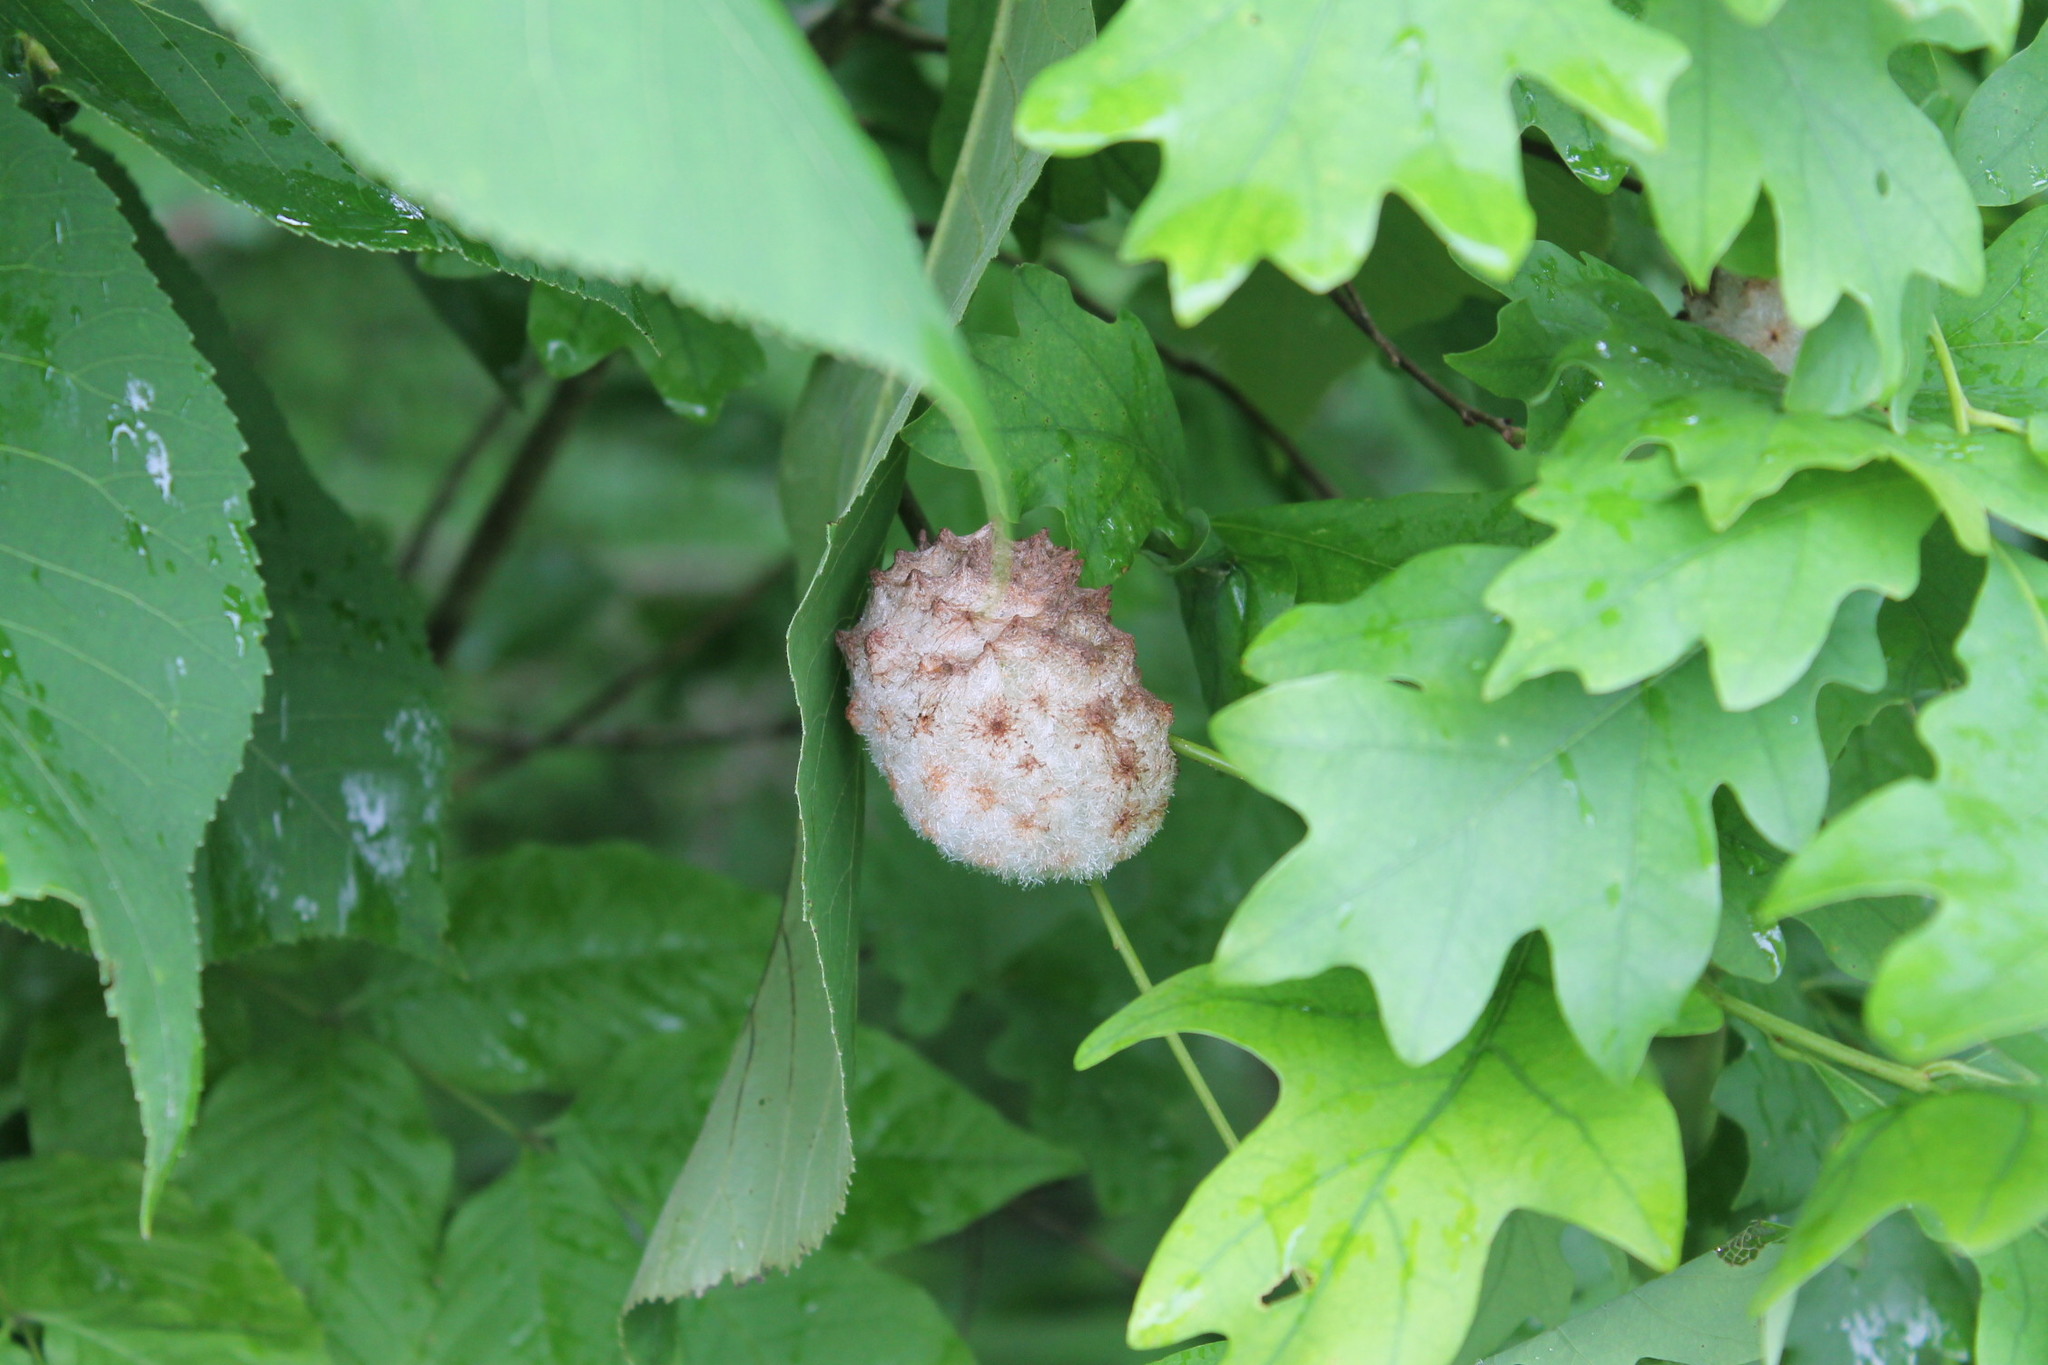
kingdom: Animalia
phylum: Arthropoda
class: Insecta
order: Hymenoptera
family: Cynipidae
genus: Callirhytis
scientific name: Callirhytis
